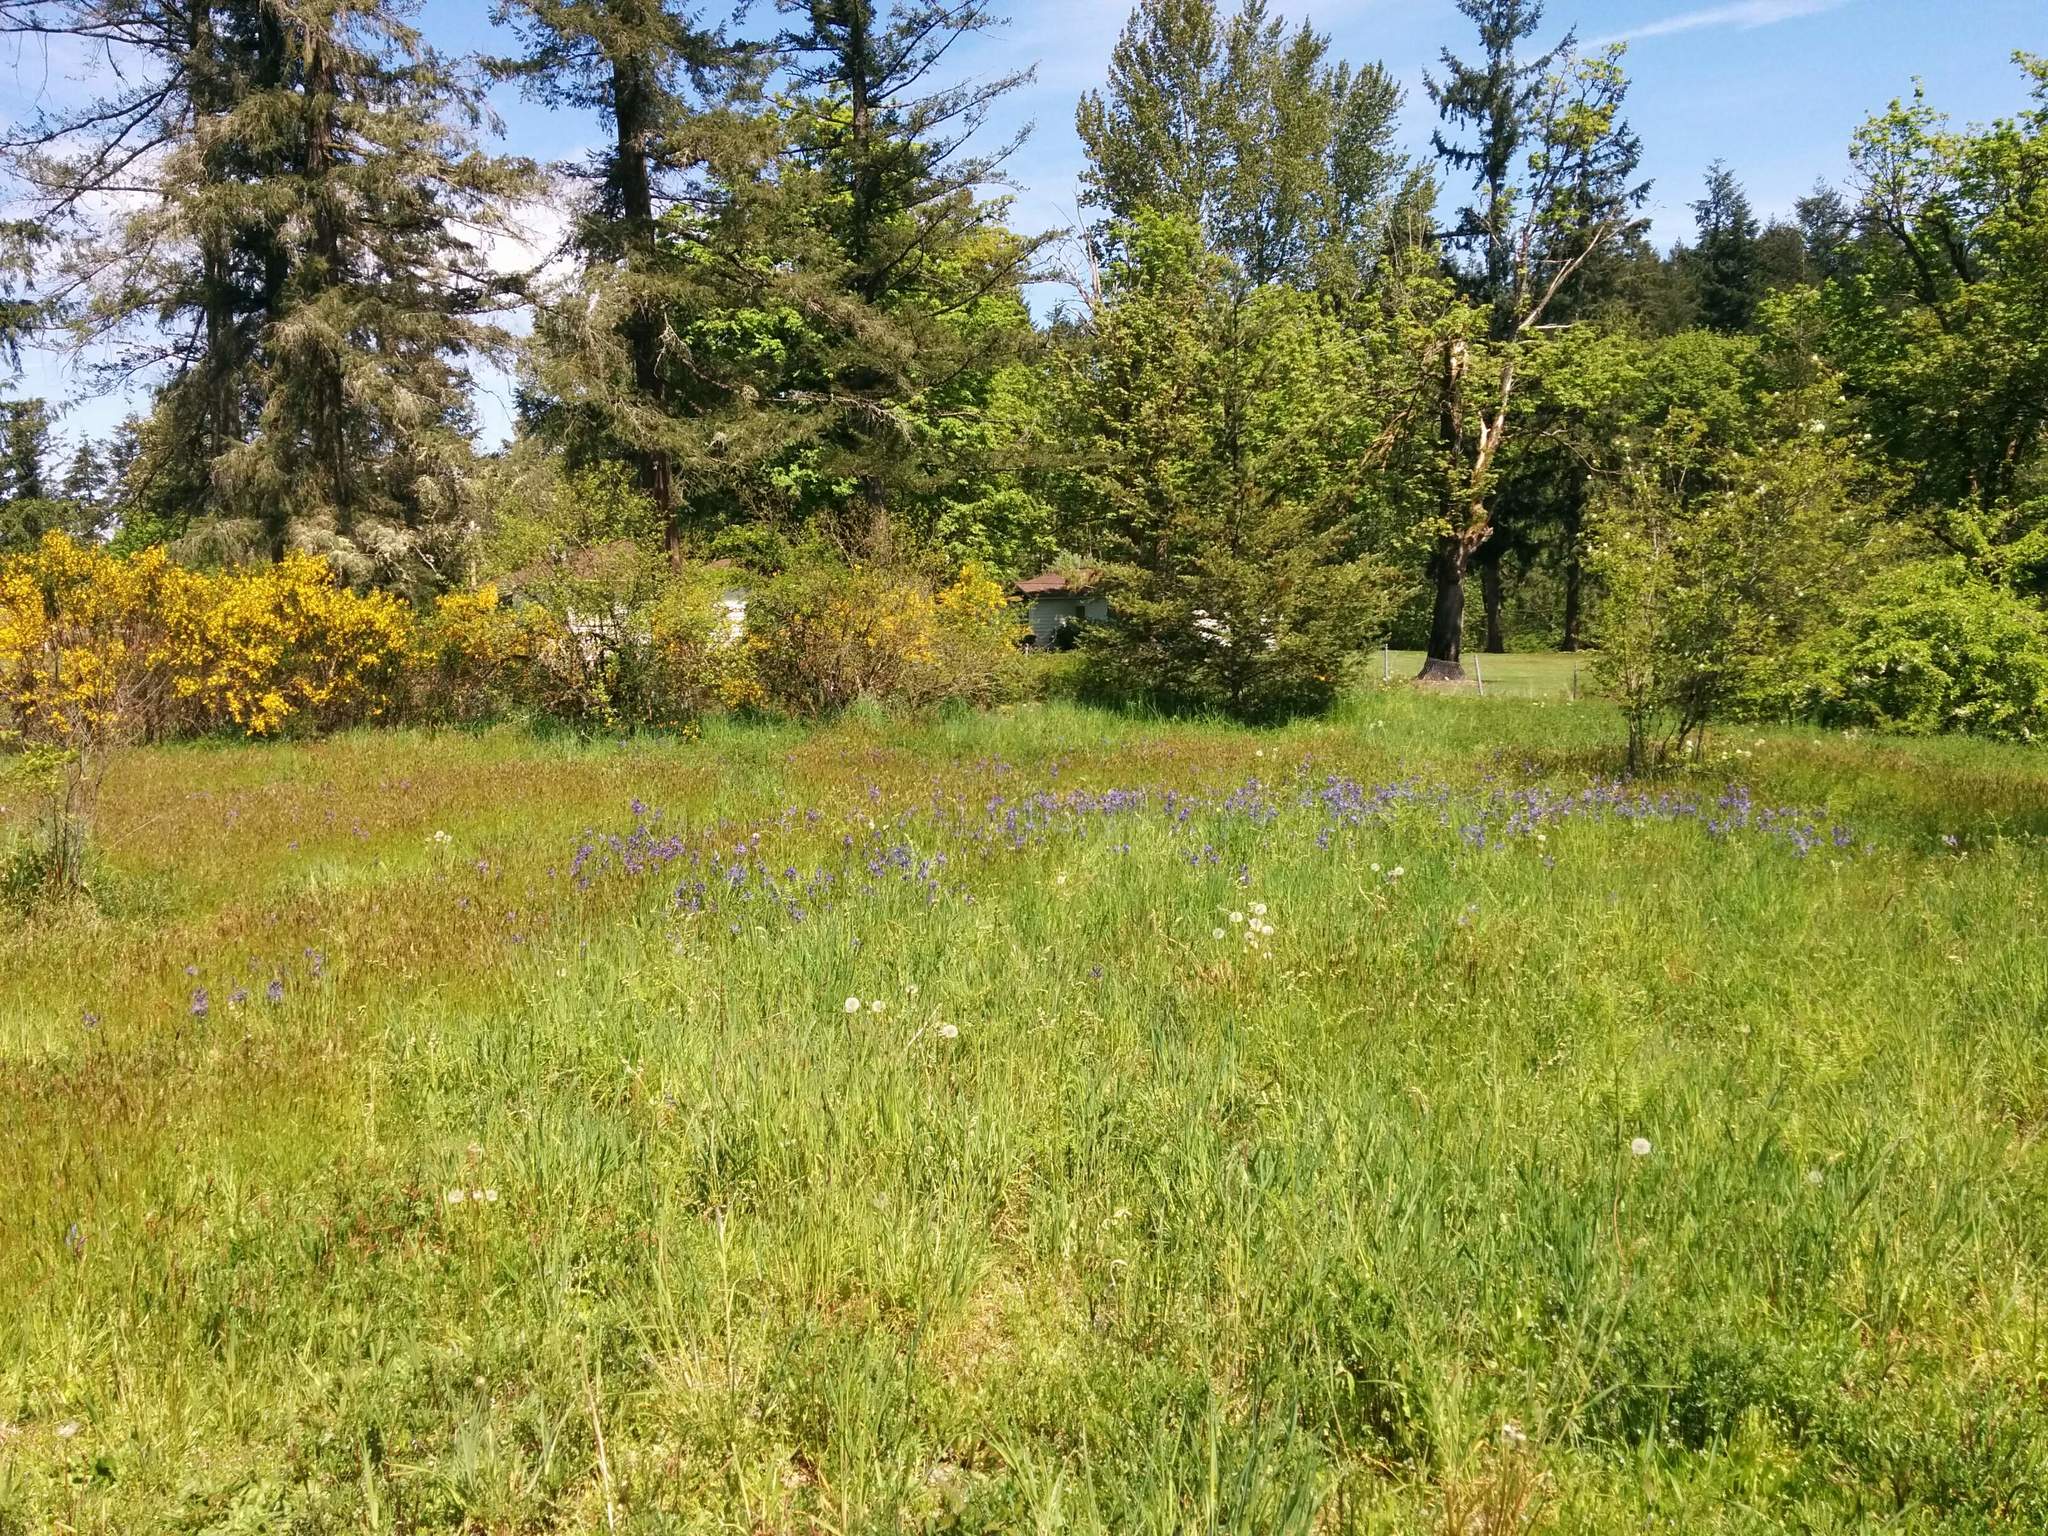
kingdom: Plantae
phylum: Tracheophyta
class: Liliopsida
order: Asparagales
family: Asparagaceae
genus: Camassia
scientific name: Camassia quamash
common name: Common camas
